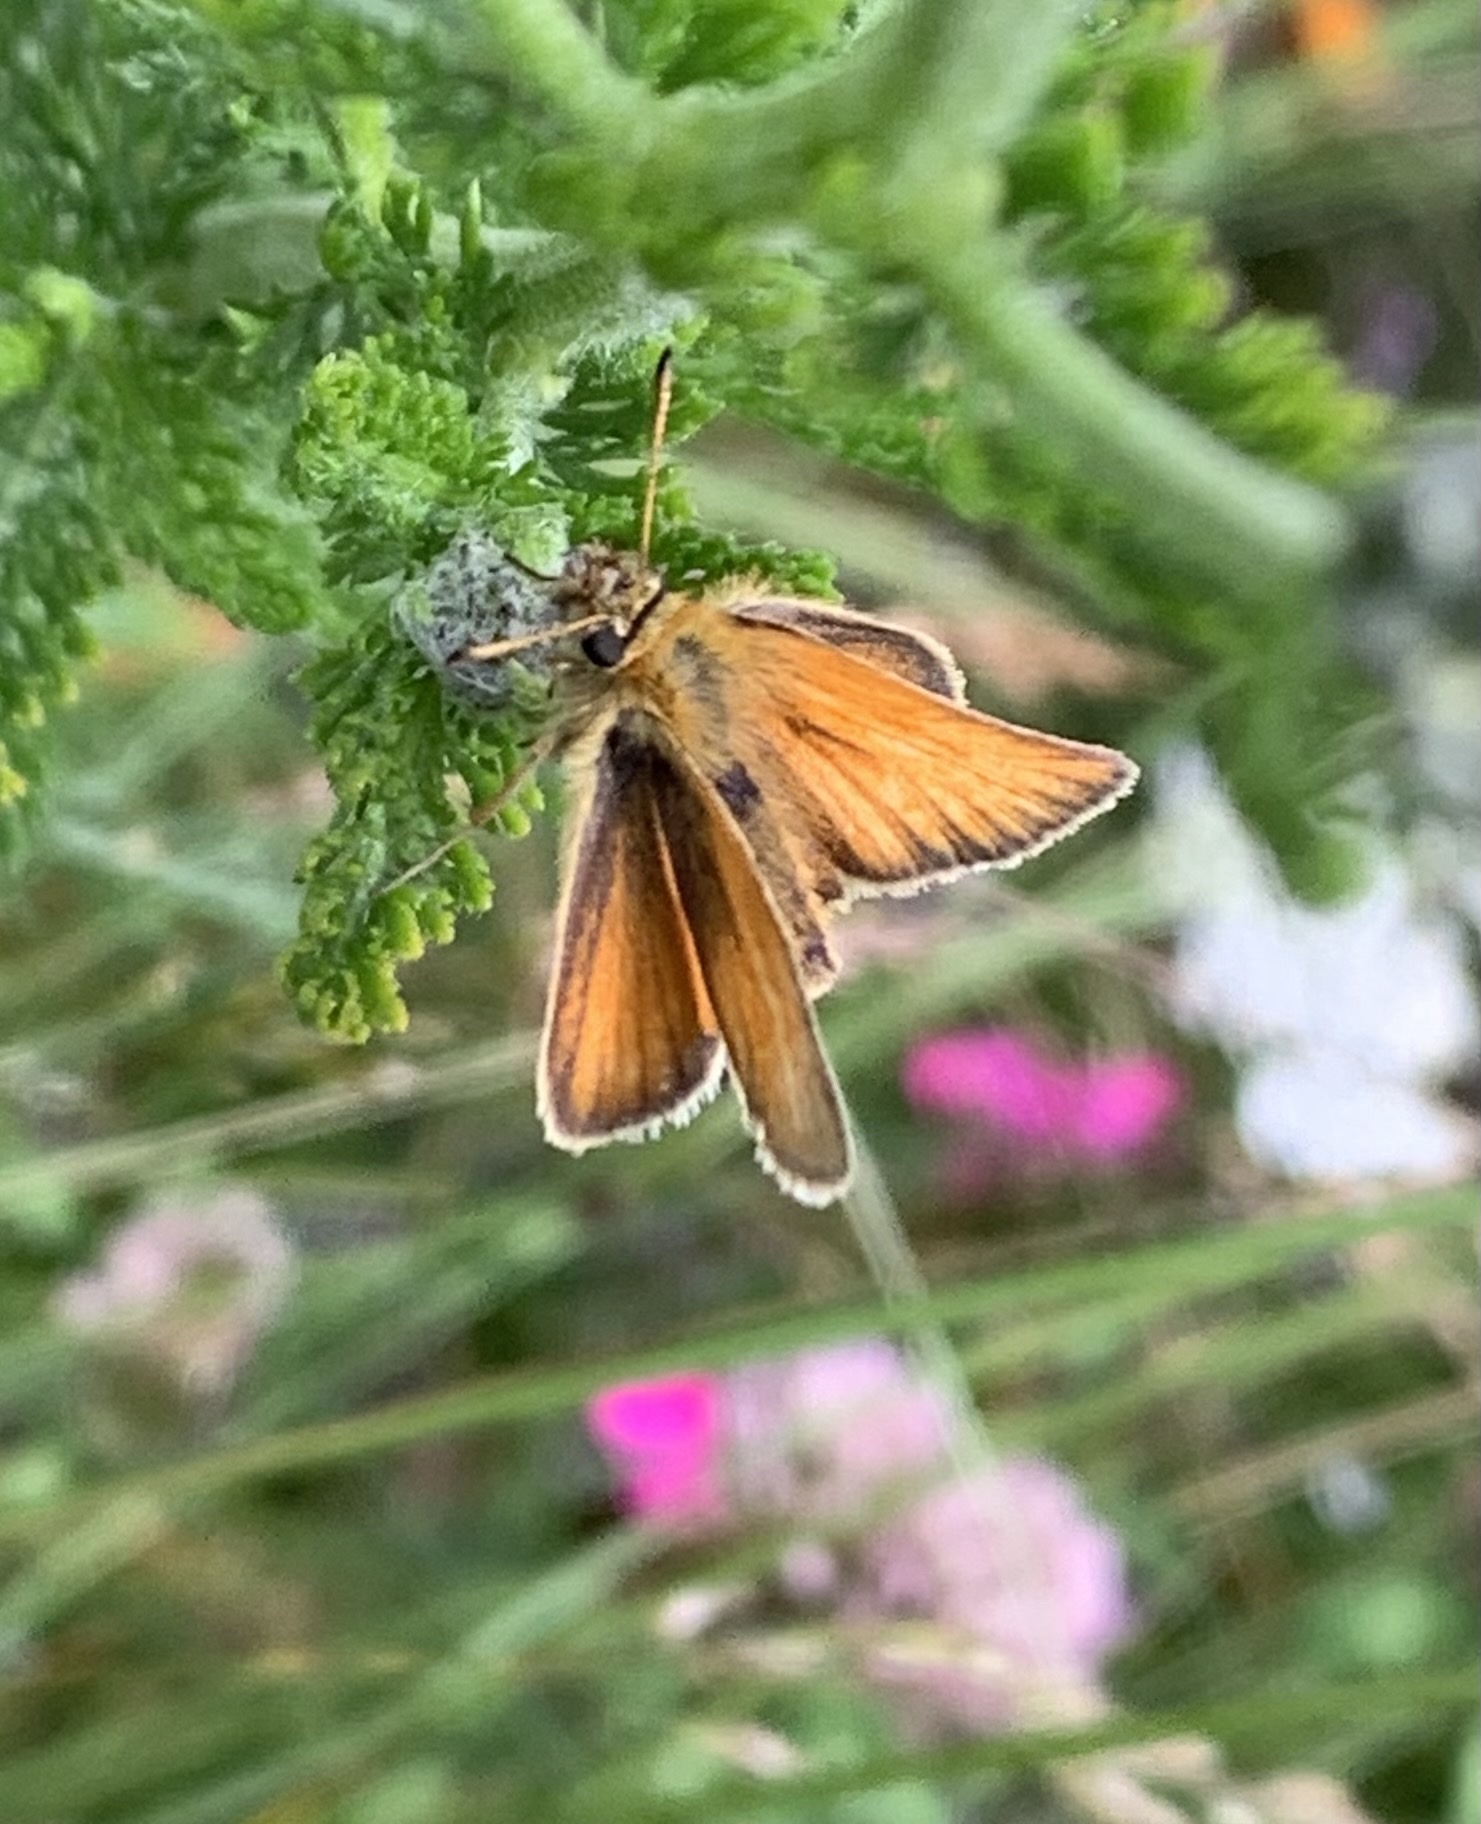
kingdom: Animalia
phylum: Arthropoda
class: Insecta
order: Lepidoptera
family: Hesperiidae
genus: Thymelicus
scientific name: Thymelicus lineola
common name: Essex skipper
